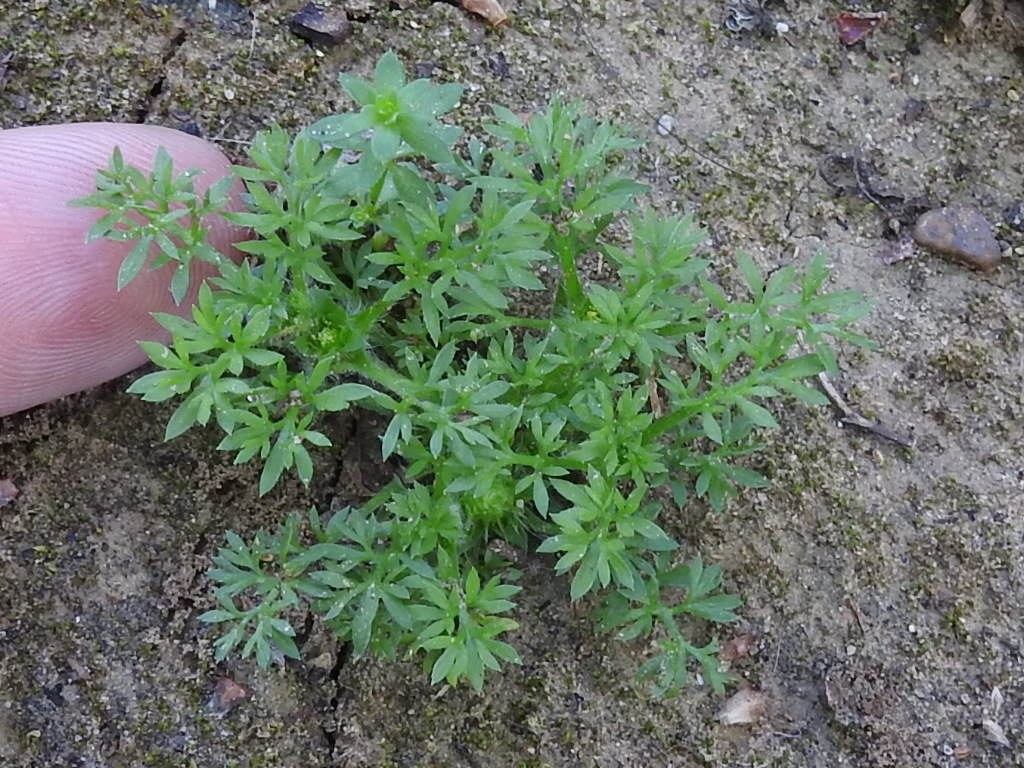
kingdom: Plantae
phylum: Tracheophyta
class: Magnoliopsida
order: Asterales
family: Asteraceae
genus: Soliva
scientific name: Soliva sessilis
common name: Field burrweed
